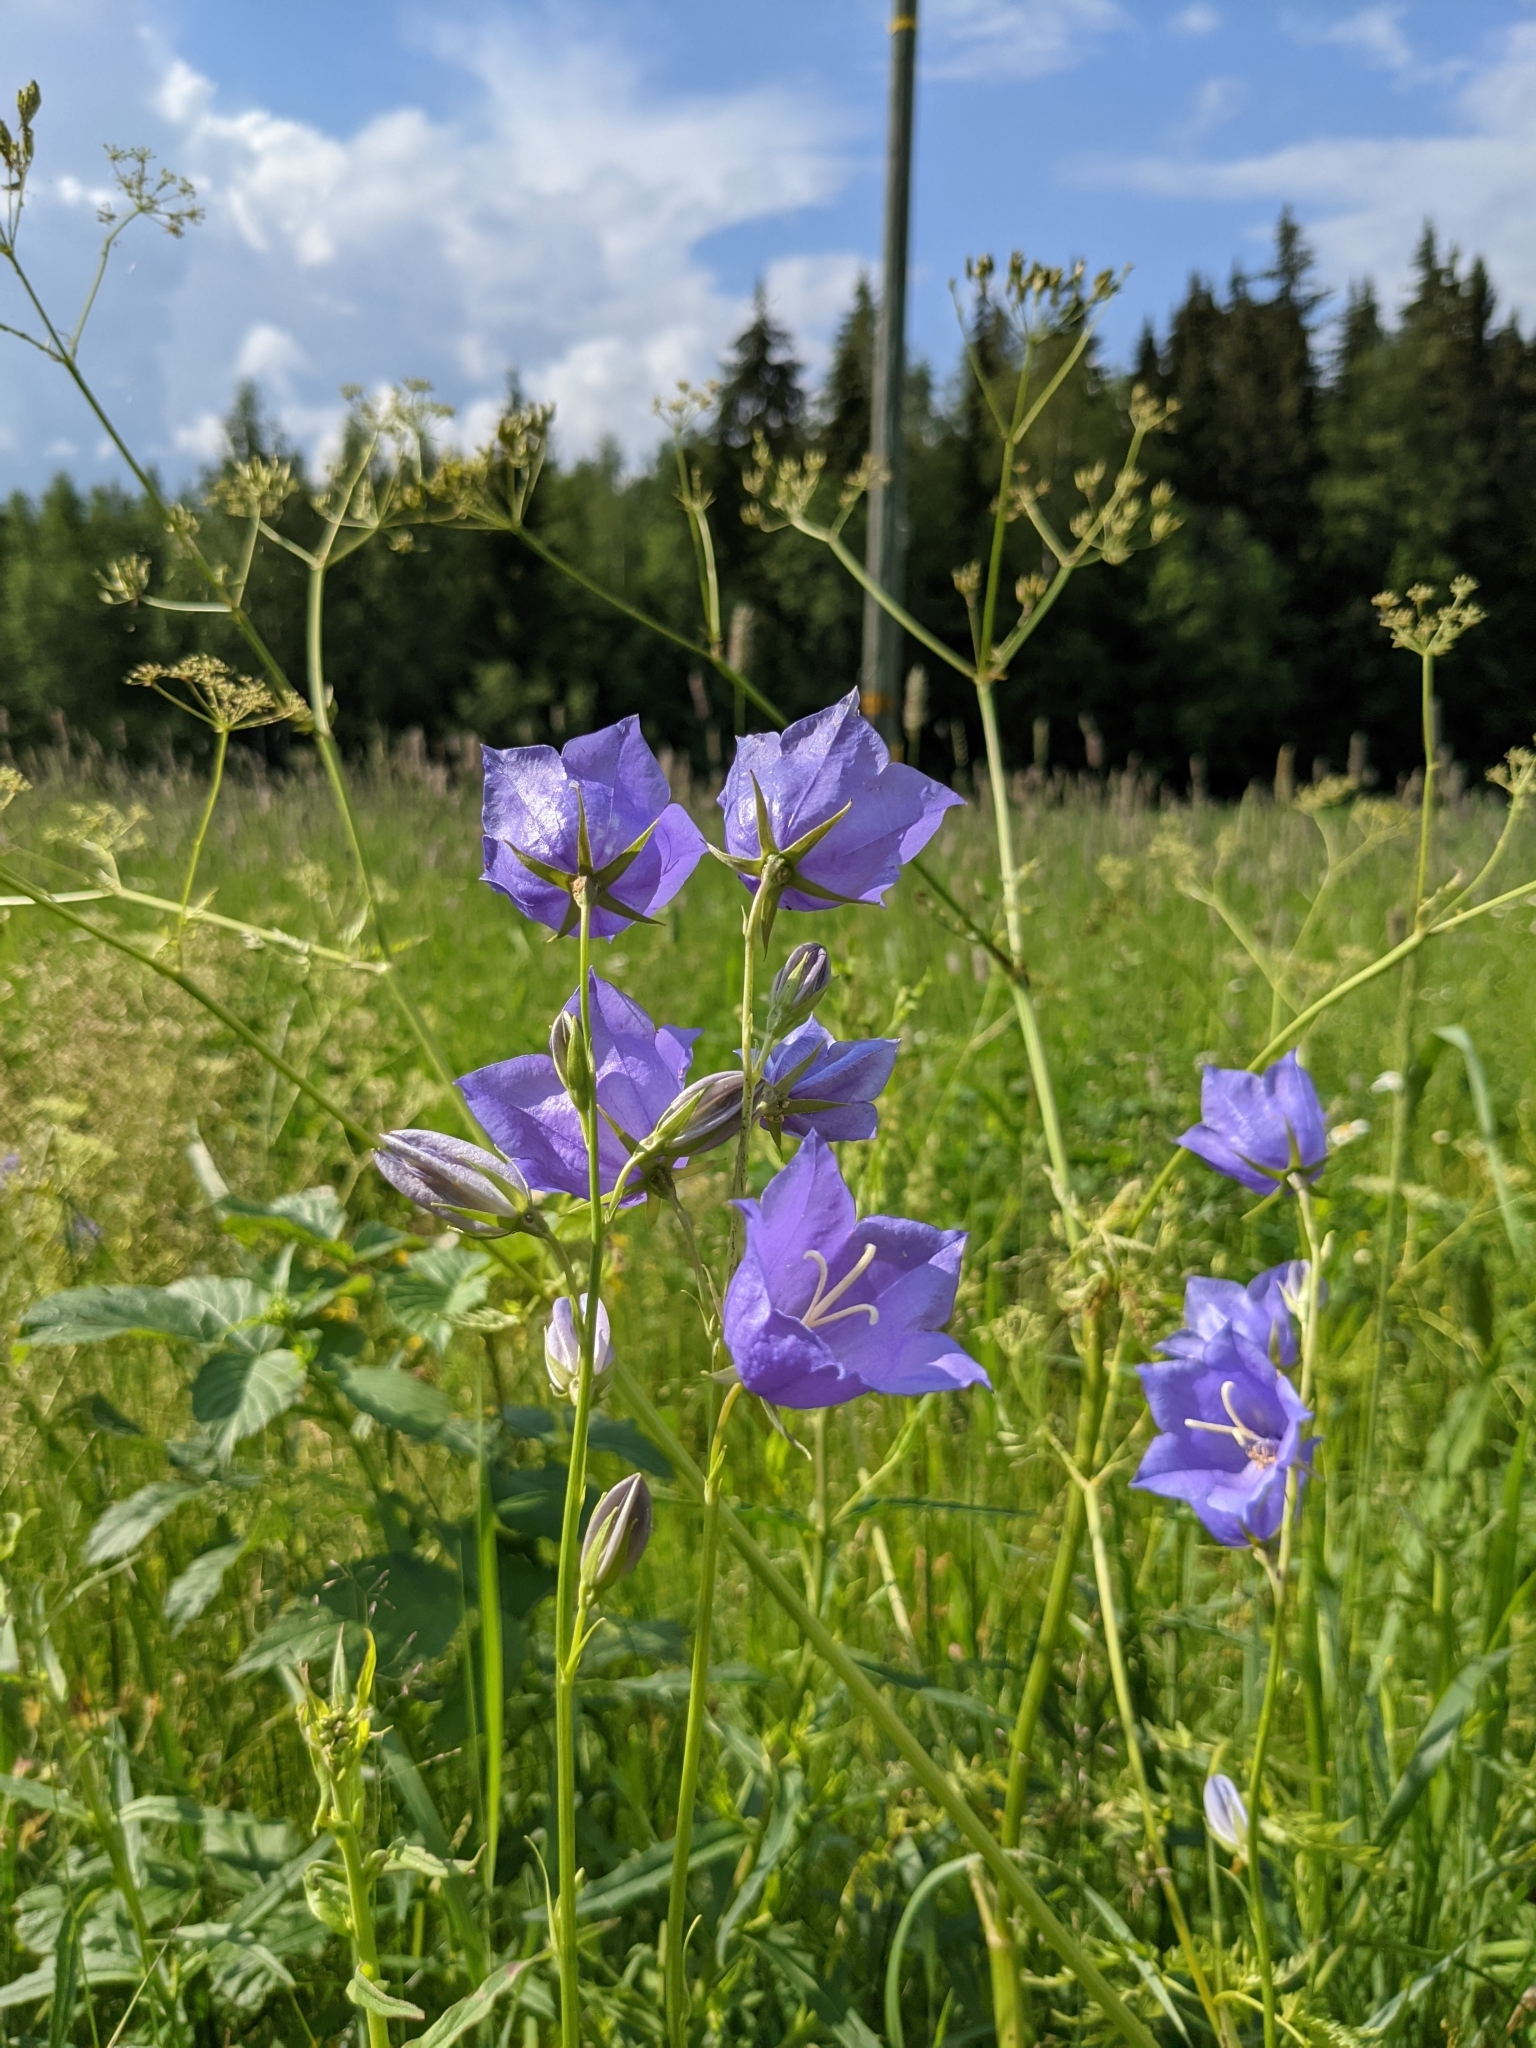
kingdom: Plantae
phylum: Tracheophyta
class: Magnoliopsida
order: Asterales
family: Campanulaceae
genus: Campanula
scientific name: Campanula persicifolia
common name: Peach-leaved bellflower
